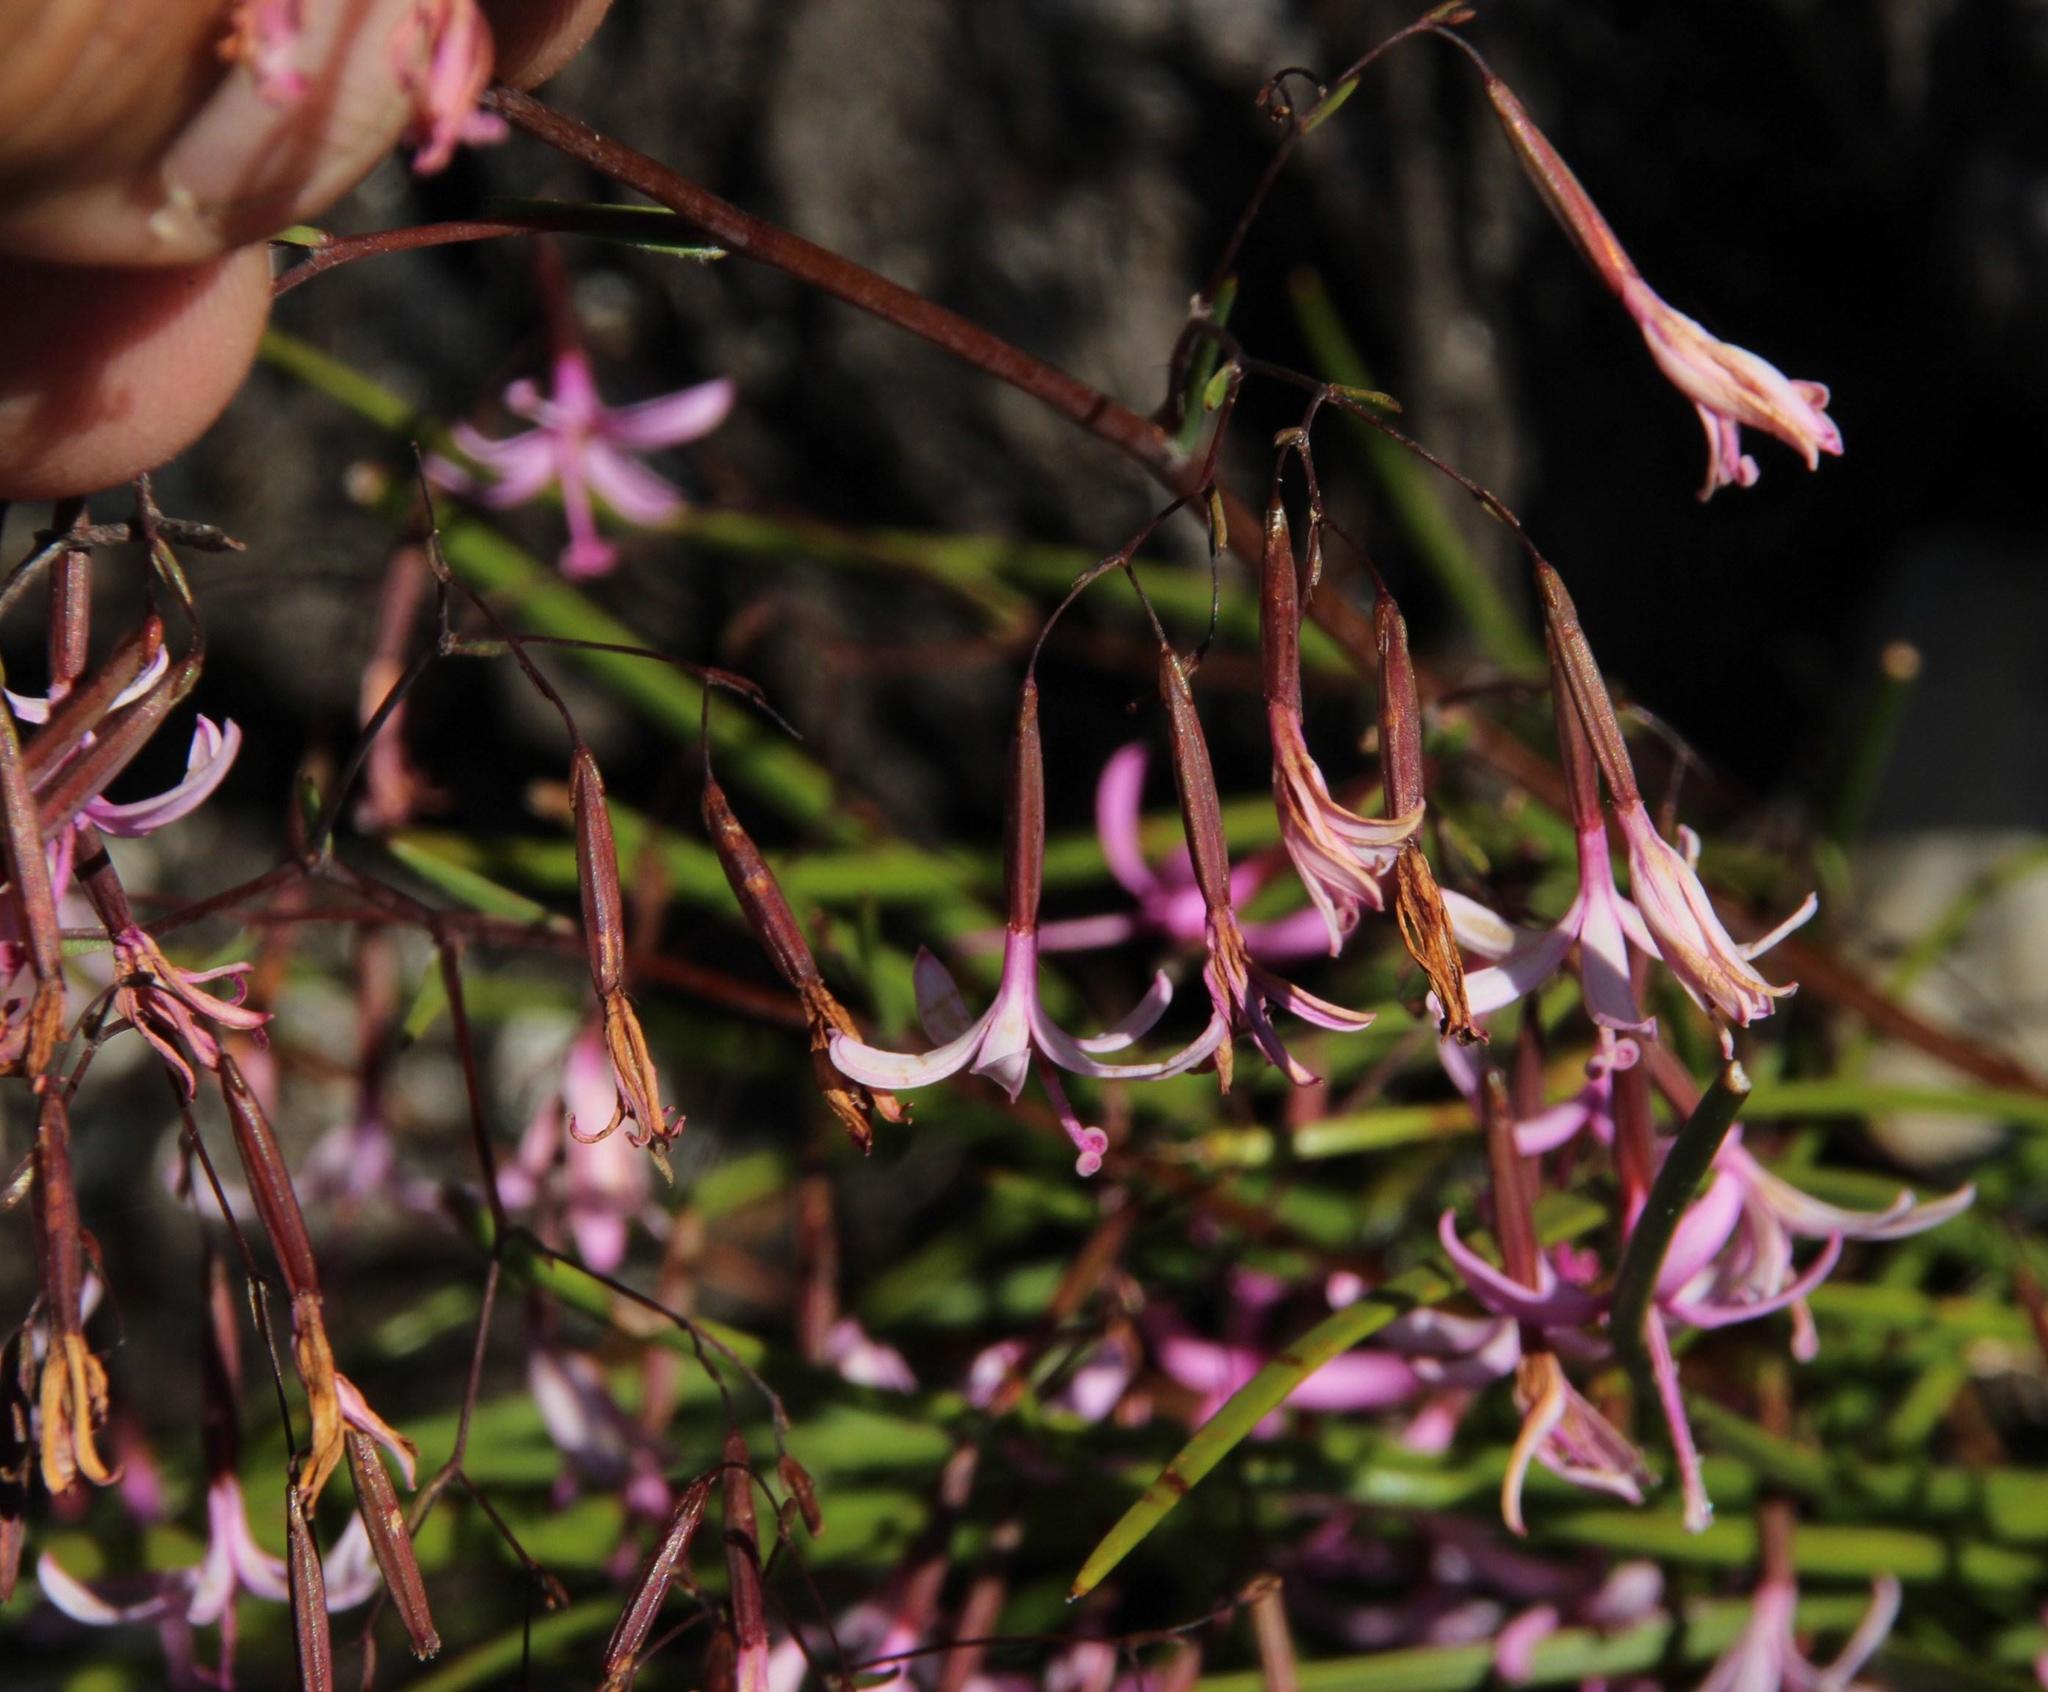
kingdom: Plantae
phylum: Tracheophyta
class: Magnoliopsida
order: Asterales
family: Asteraceae
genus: Corymbium
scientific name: Corymbium laxum
